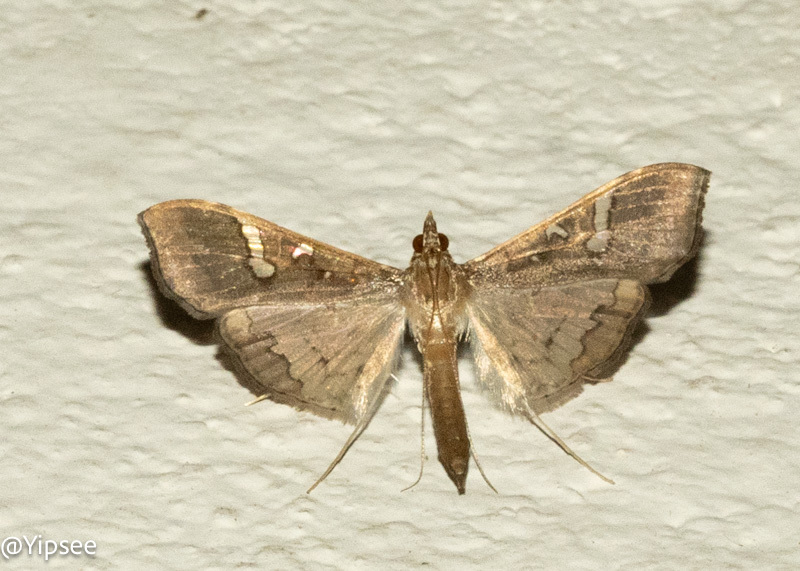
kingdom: Animalia
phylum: Arthropoda
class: Insecta
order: Lepidoptera
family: Crambidae
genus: Maruca
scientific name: Maruca vitrata
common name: Maruca pod borer
